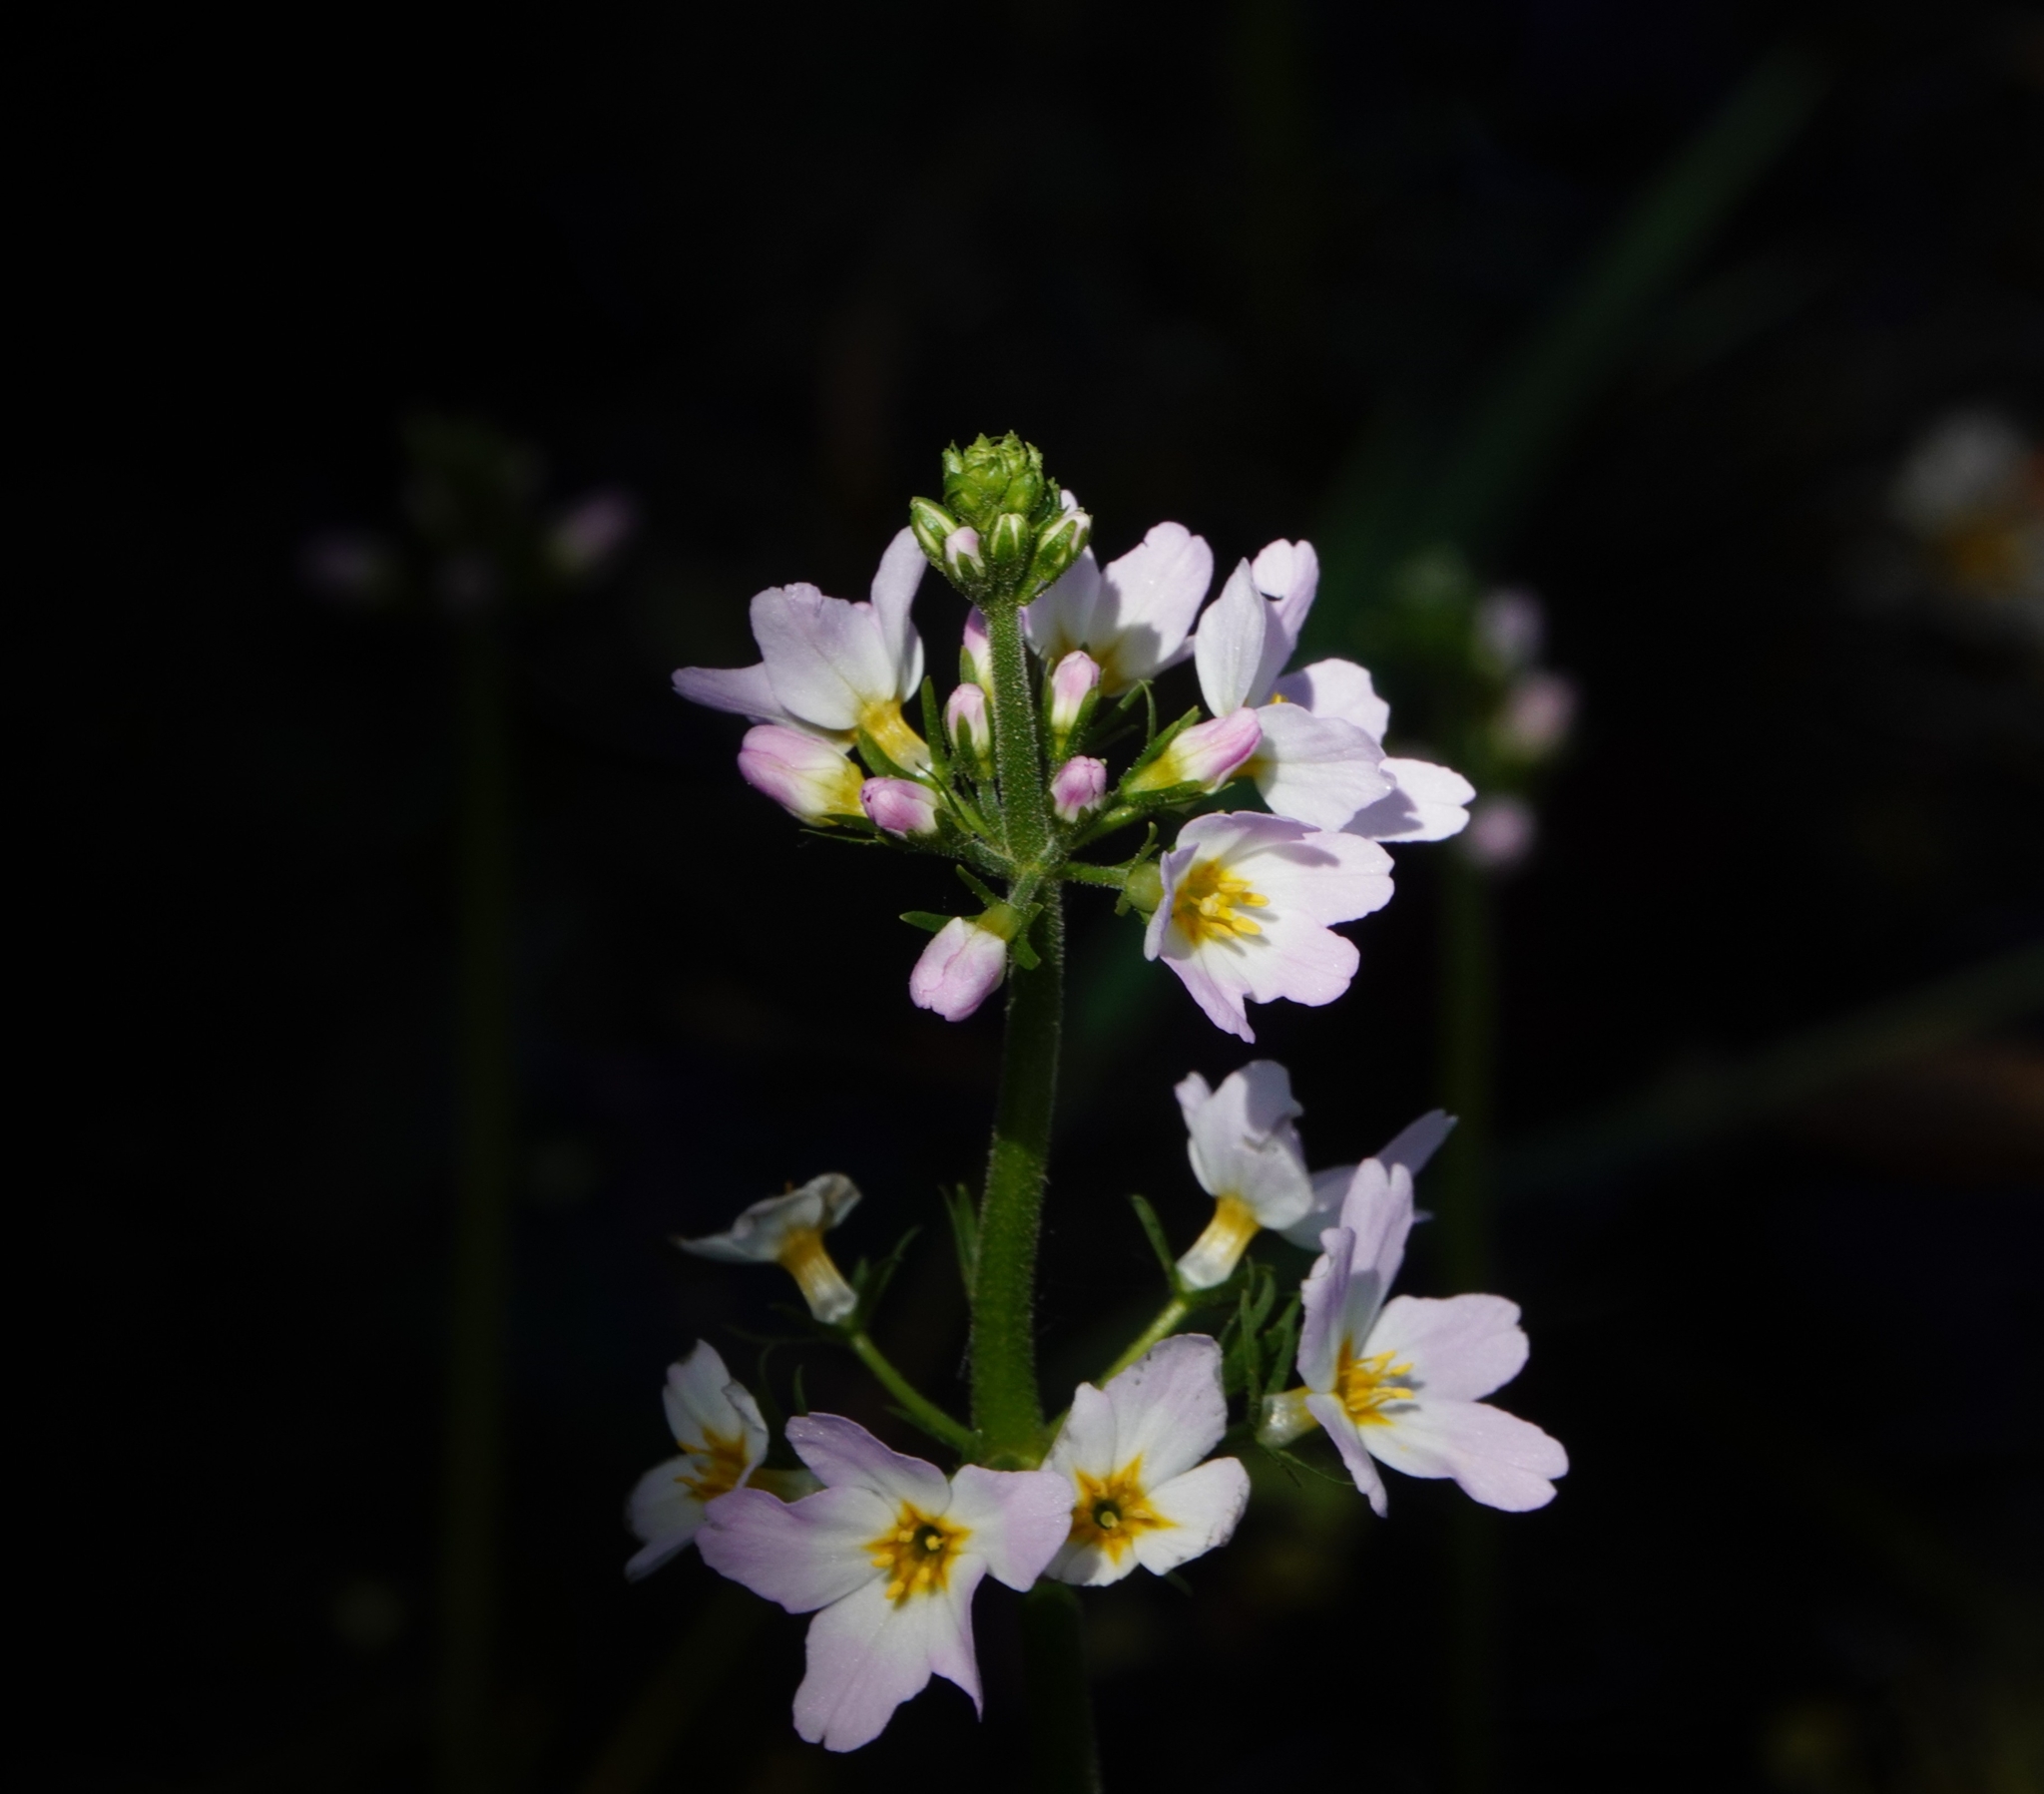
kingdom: Plantae
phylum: Tracheophyta
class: Magnoliopsida
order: Ericales
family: Primulaceae
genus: Hottonia
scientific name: Hottonia palustris
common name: Water-violet
